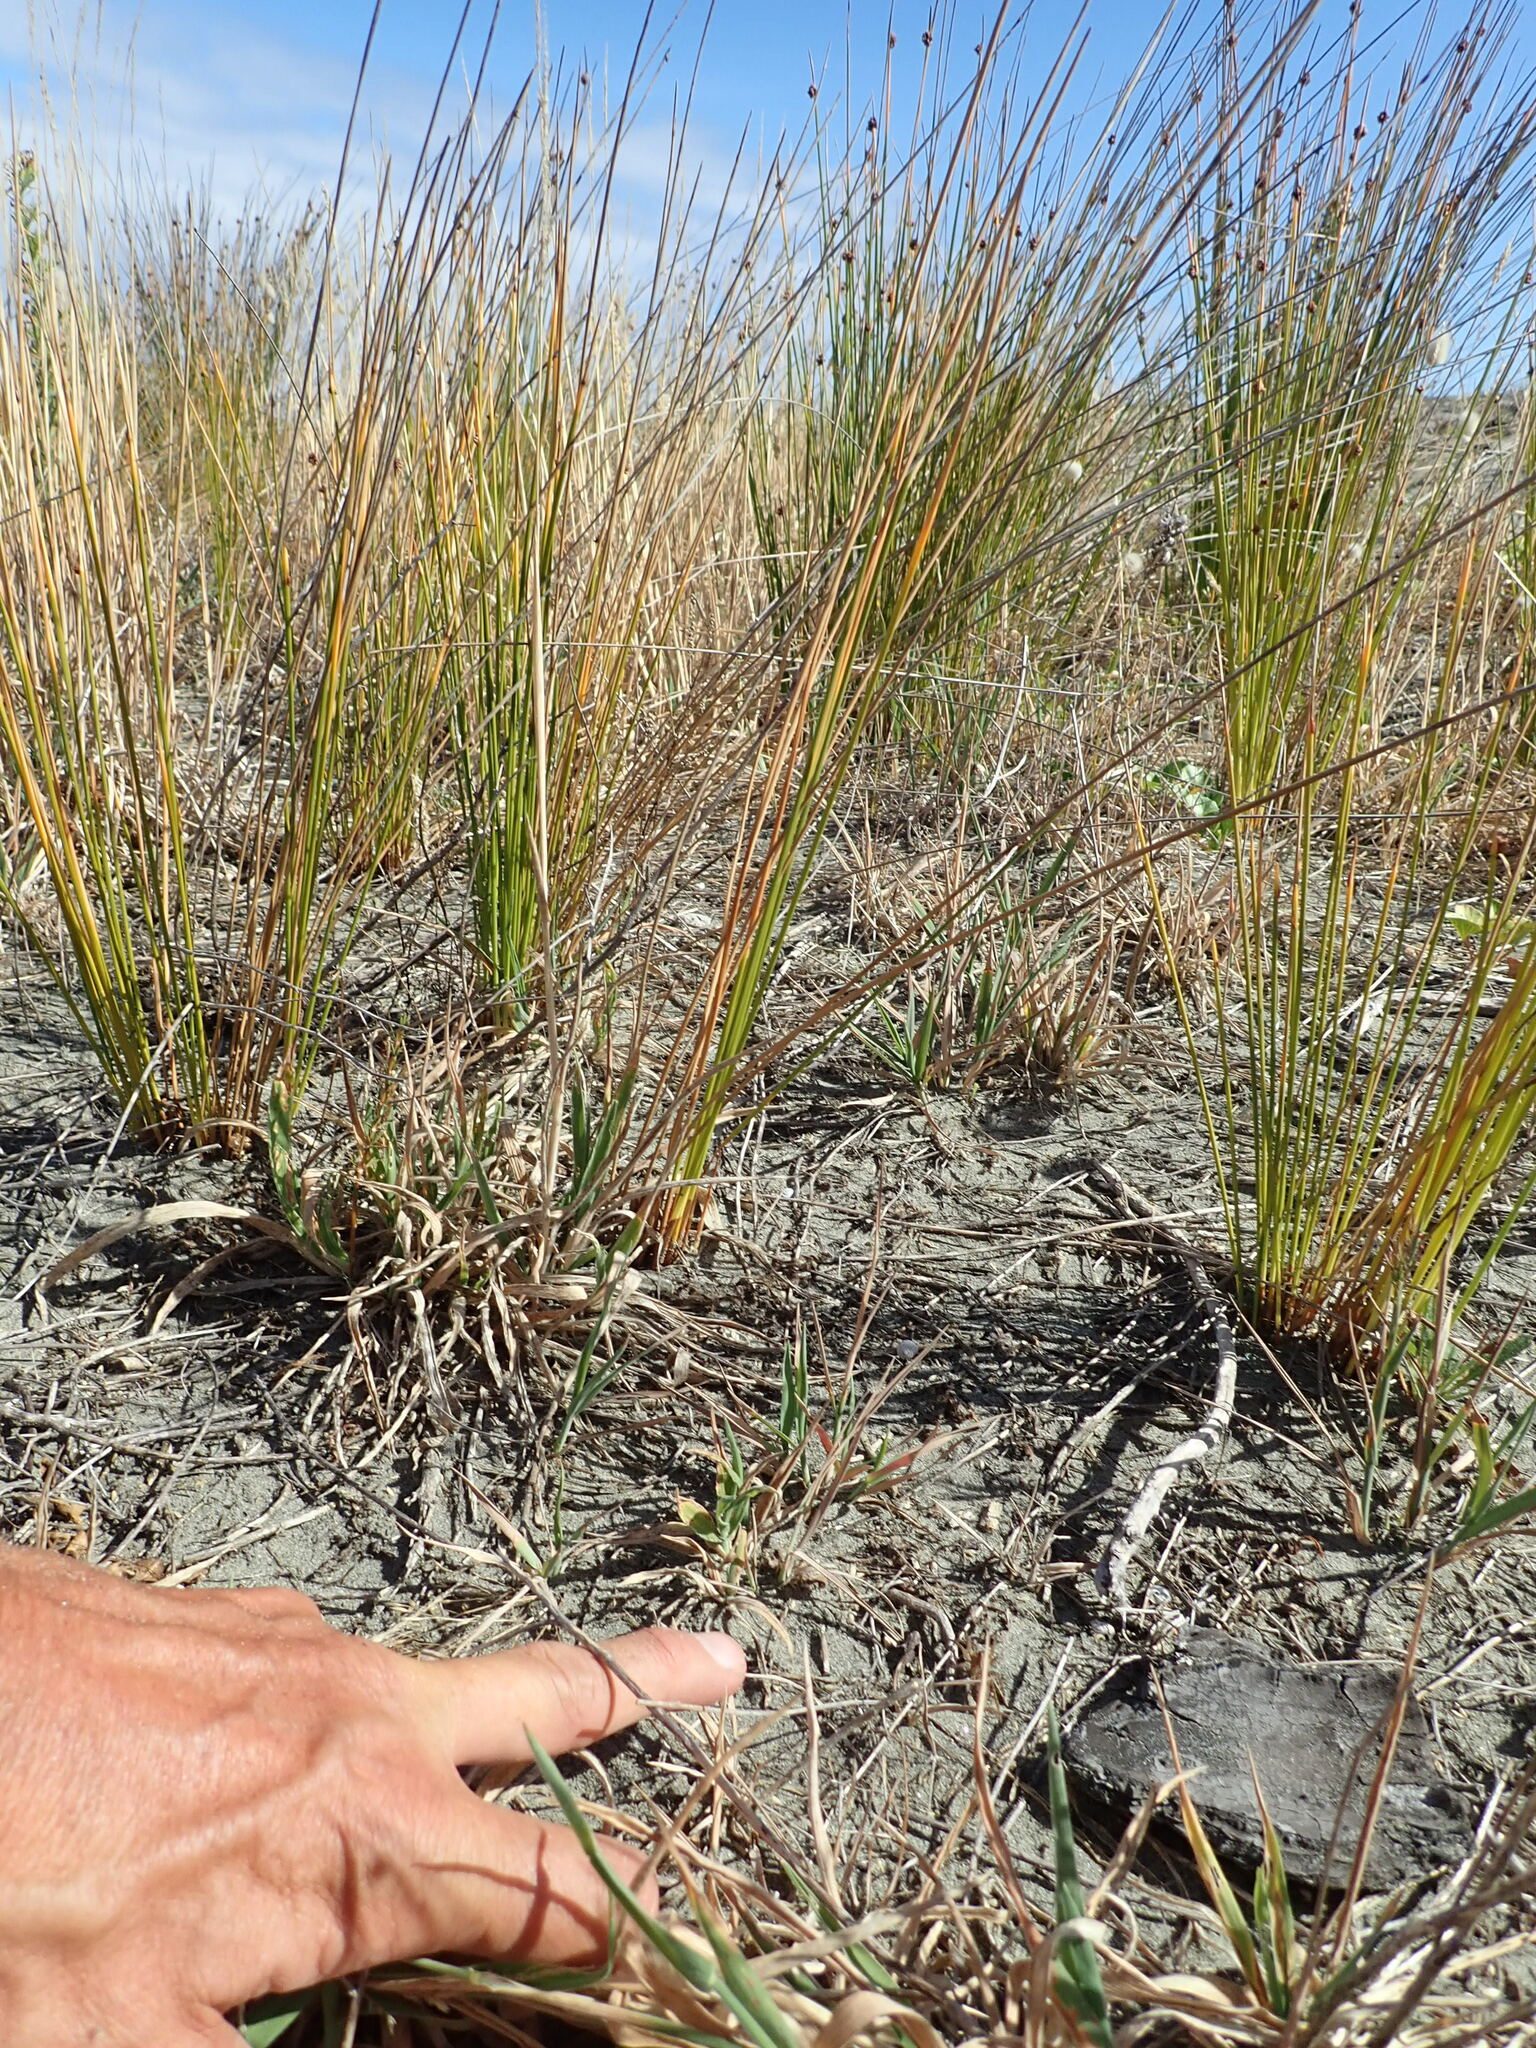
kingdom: Animalia
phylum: Arthropoda
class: Arachnida
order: Araneae
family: Lycosidae
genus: Hogna
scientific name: Hogna crispipes
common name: Wolf spider
